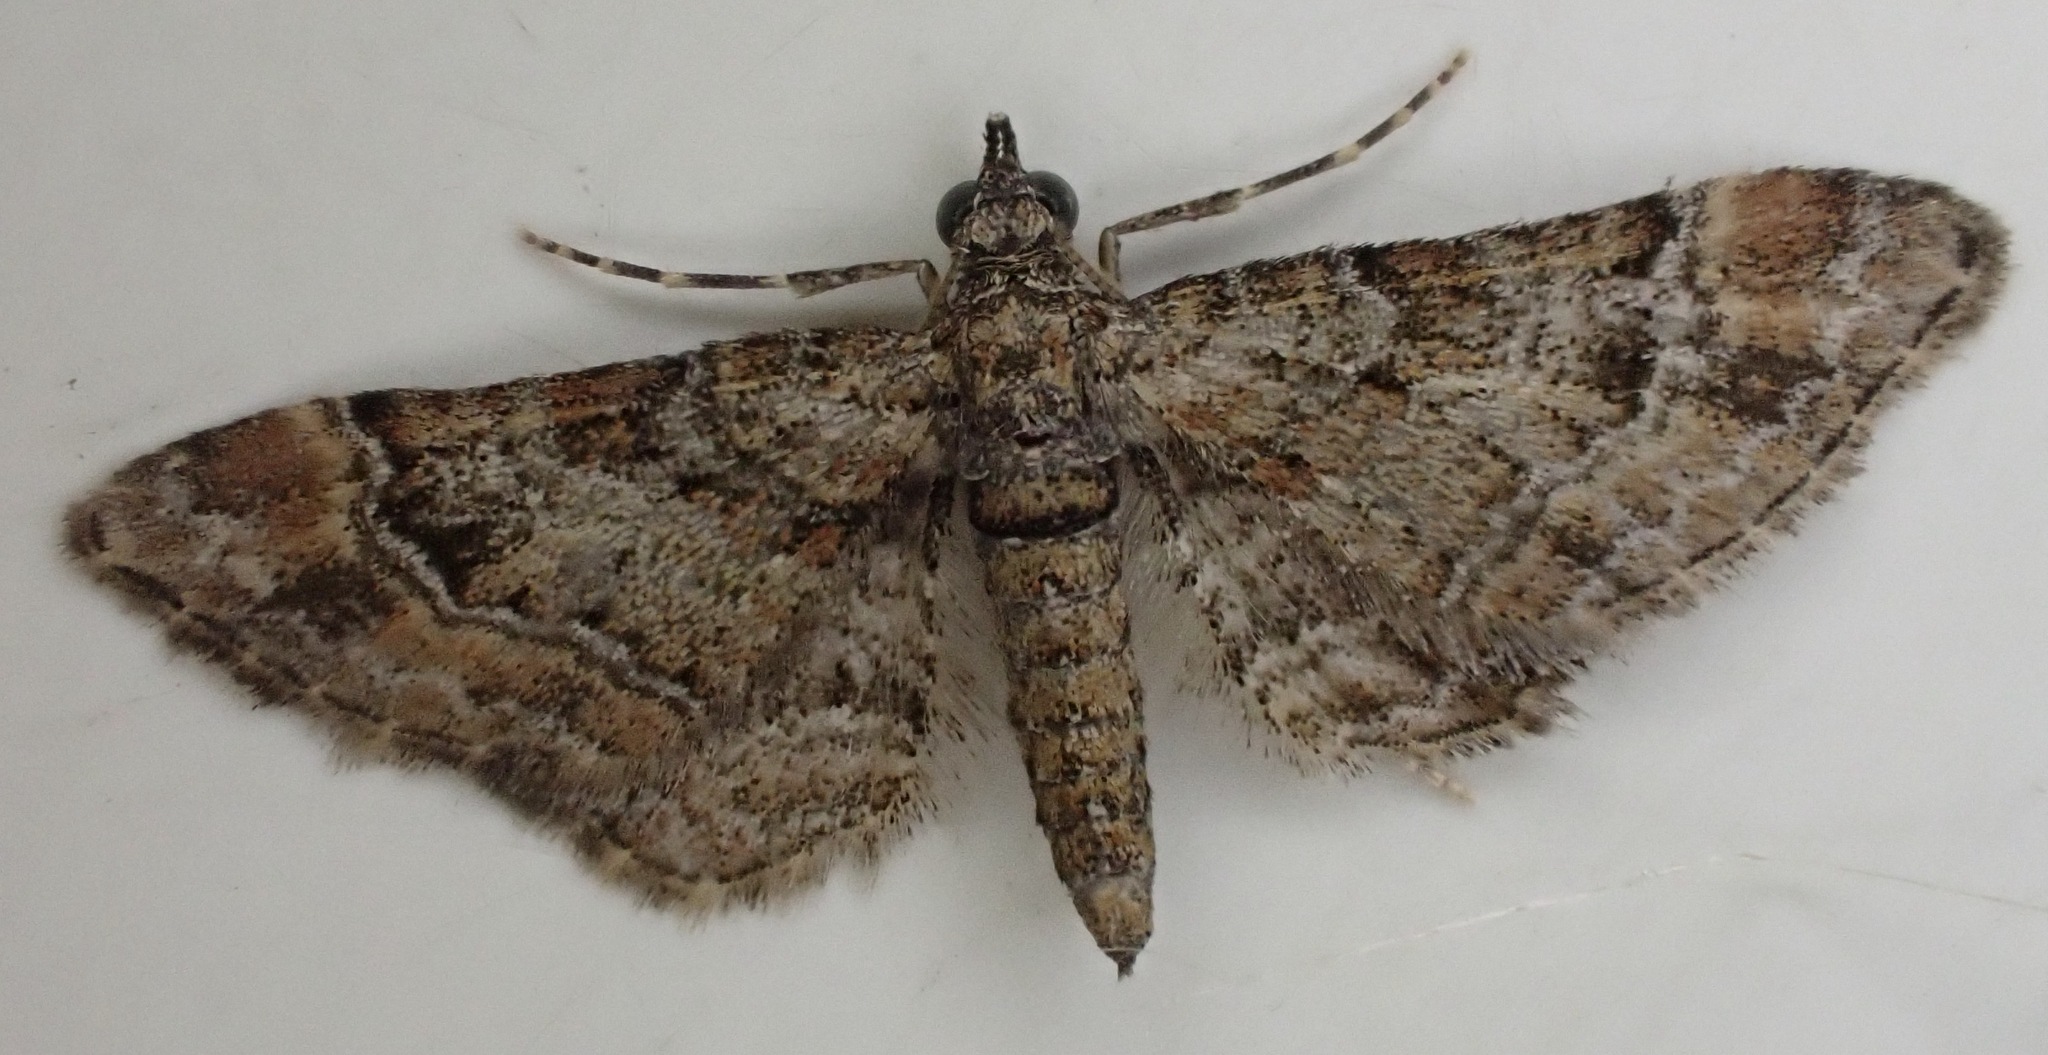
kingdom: Animalia
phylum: Arthropoda
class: Insecta
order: Lepidoptera
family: Geometridae
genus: Gymnoscelis
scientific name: Gymnoscelis rufifasciata
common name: Double-striped pug
